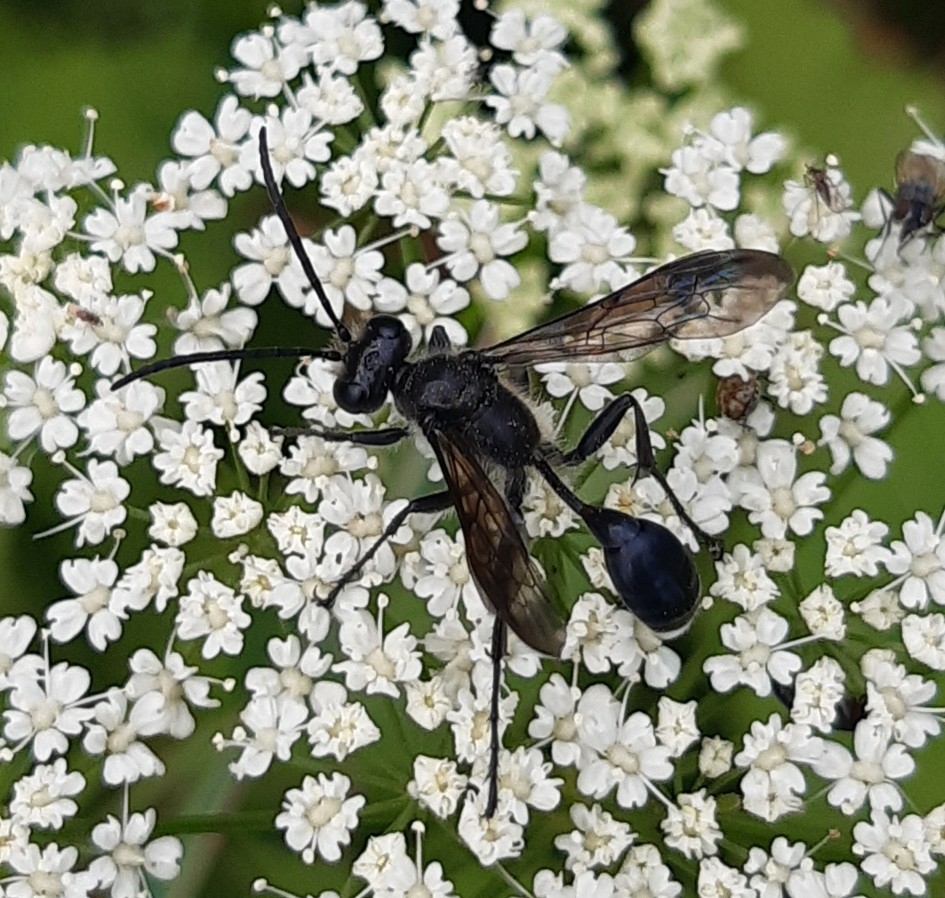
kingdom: Animalia
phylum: Arthropoda
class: Insecta
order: Hymenoptera
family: Sphecidae
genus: Isodontia
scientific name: Isodontia mexicana
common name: Mud dauber
